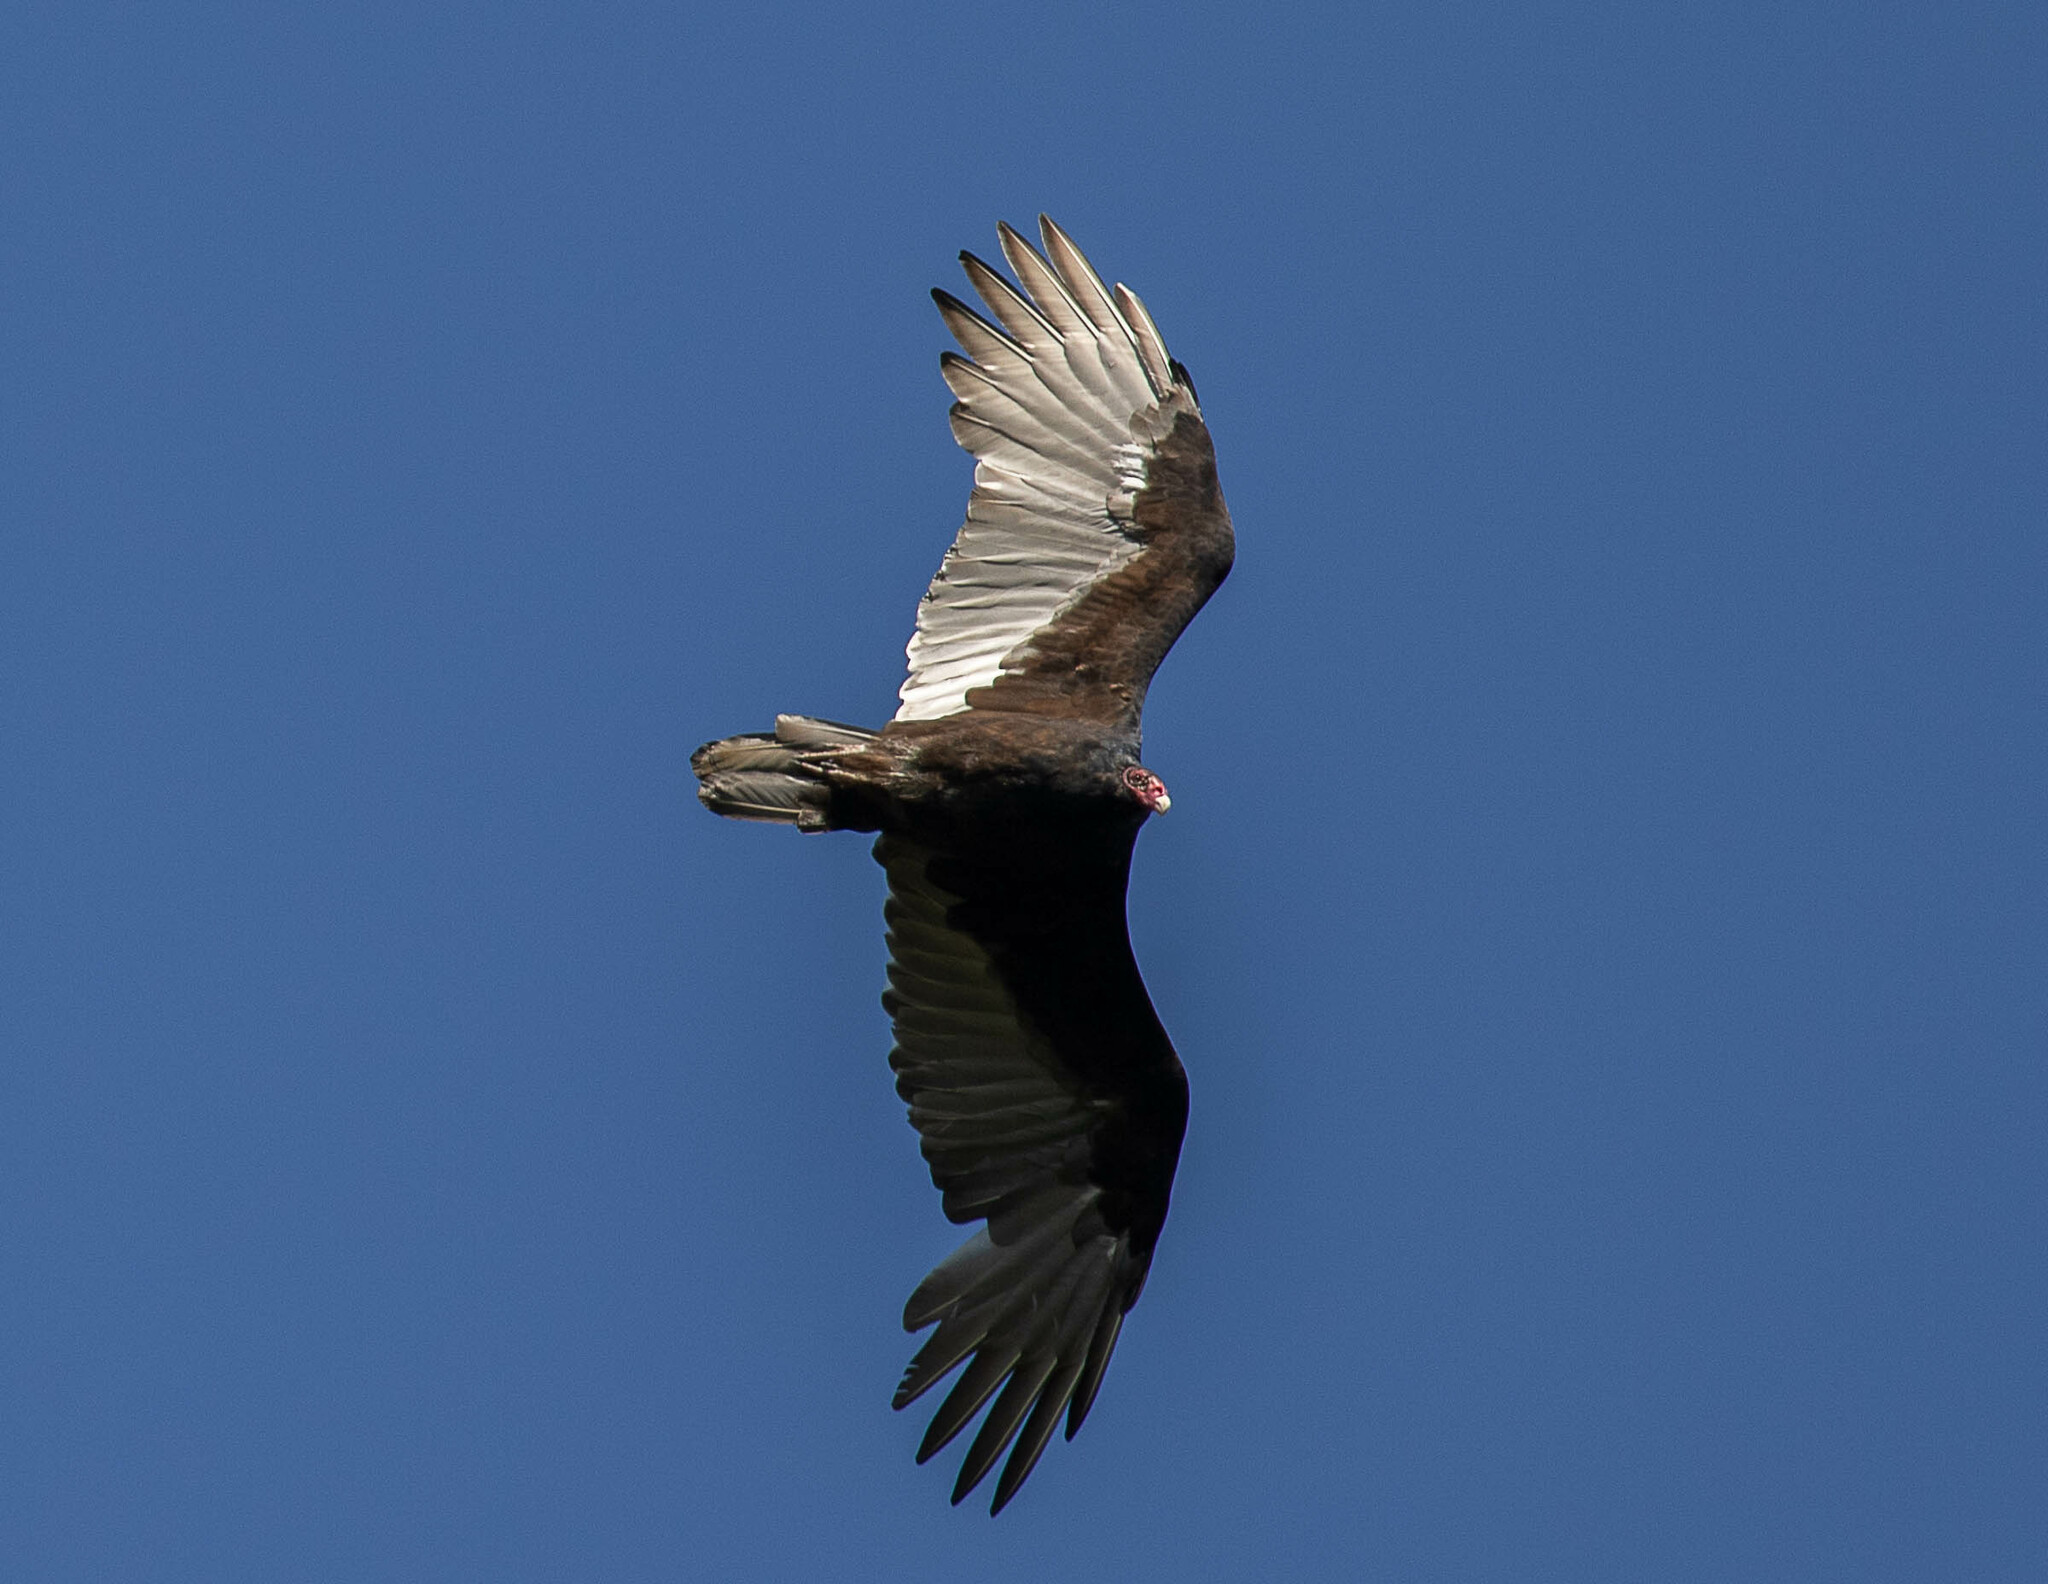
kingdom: Animalia
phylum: Chordata
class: Aves
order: Accipitriformes
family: Cathartidae
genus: Cathartes
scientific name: Cathartes aura
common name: Turkey vulture
